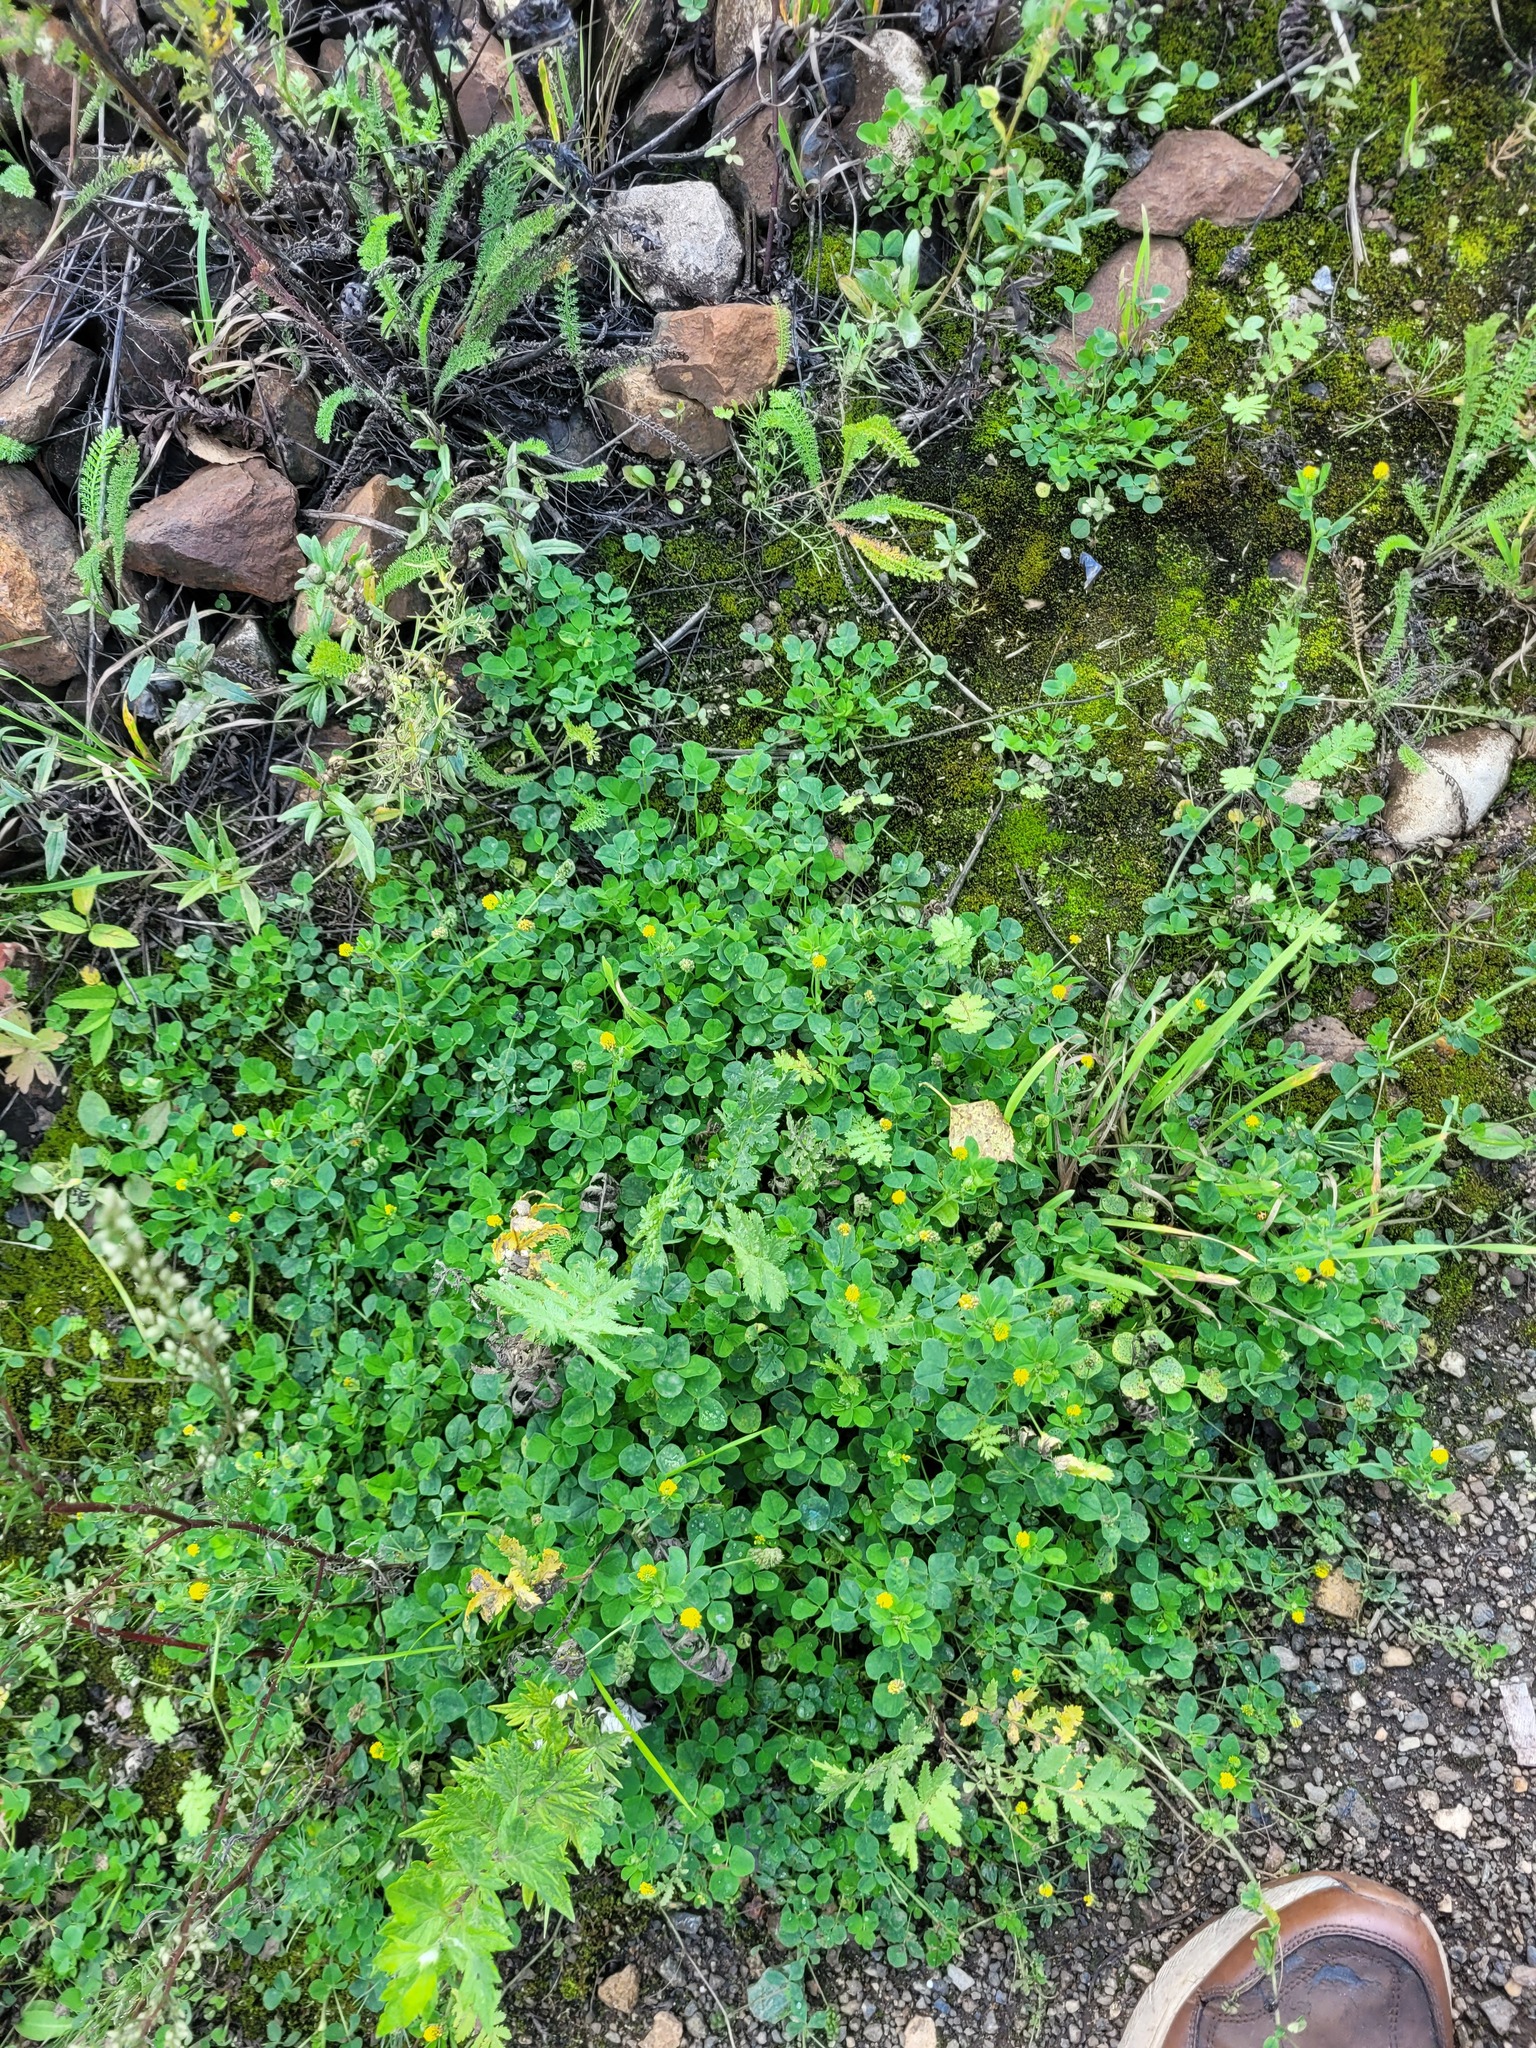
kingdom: Plantae
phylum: Tracheophyta
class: Magnoliopsida
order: Fabales
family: Fabaceae
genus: Medicago
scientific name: Medicago lupulina
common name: Black medick
